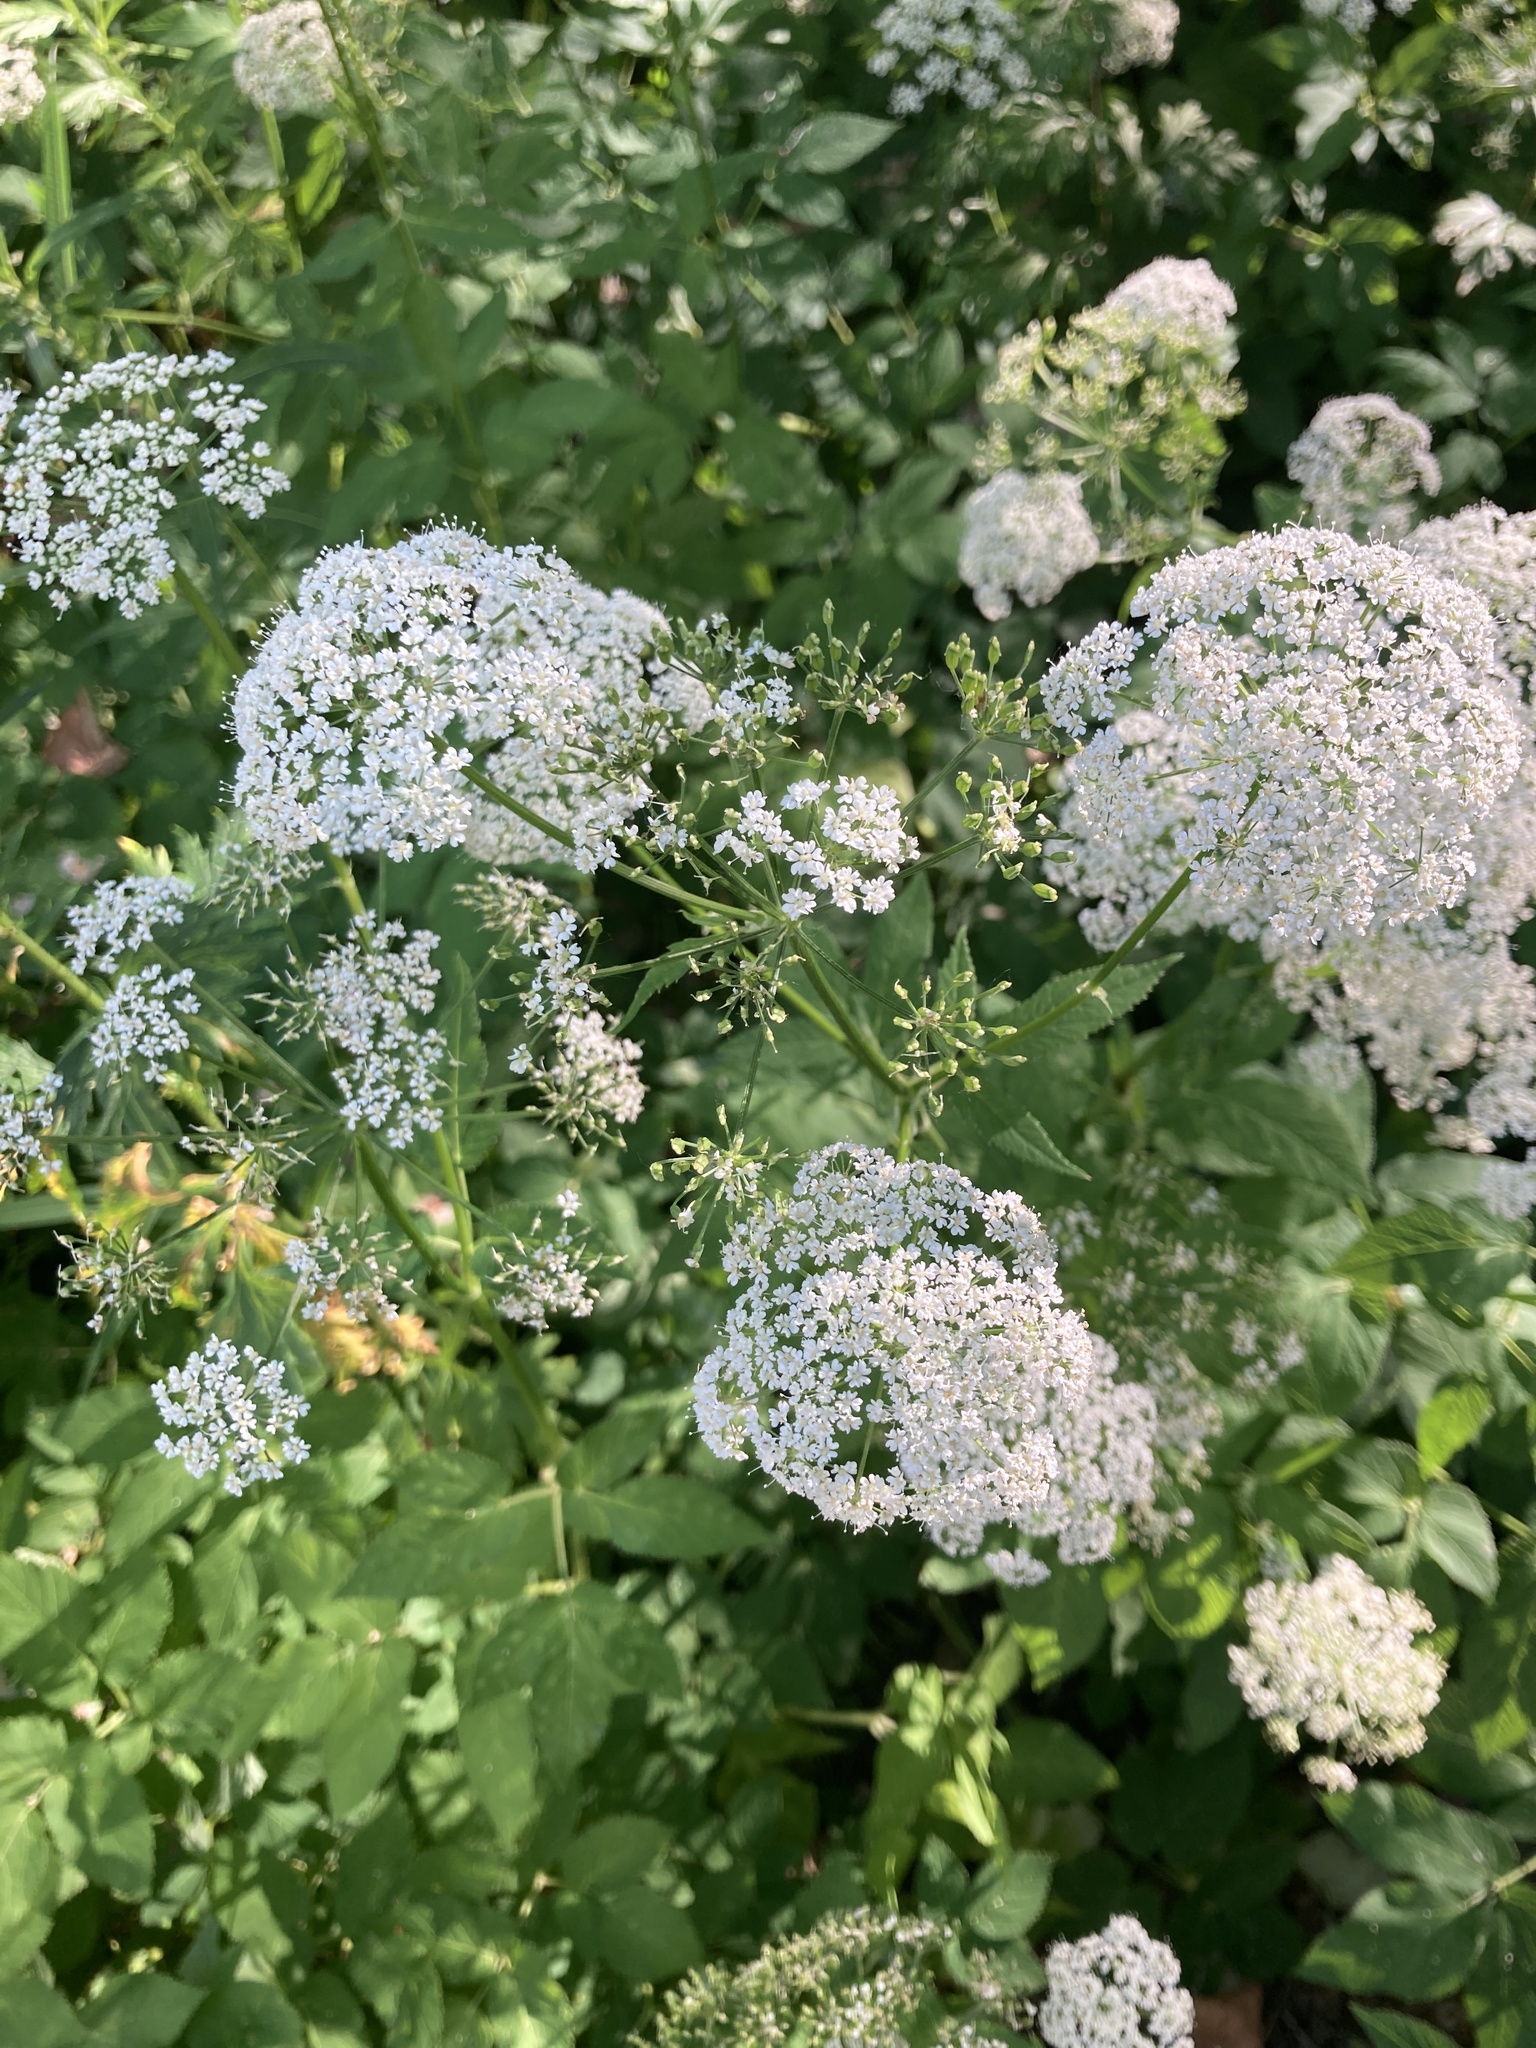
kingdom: Plantae
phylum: Tracheophyta
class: Magnoliopsida
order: Apiales
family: Apiaceae
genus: Aegopodium
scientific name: Aegopodium podagraria
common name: Ground-elder
